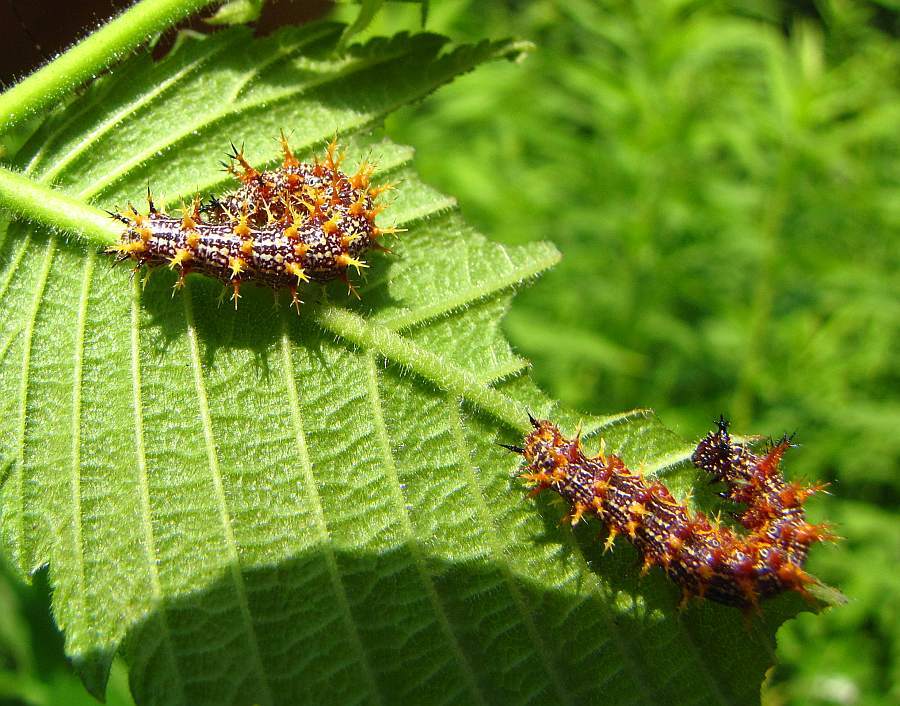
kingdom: Animalia
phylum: Arthropoda
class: Insecta
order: Lepidoptera
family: Nymphalidae
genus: Polygonia
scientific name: Polygonia interrogationis
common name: Question mark
